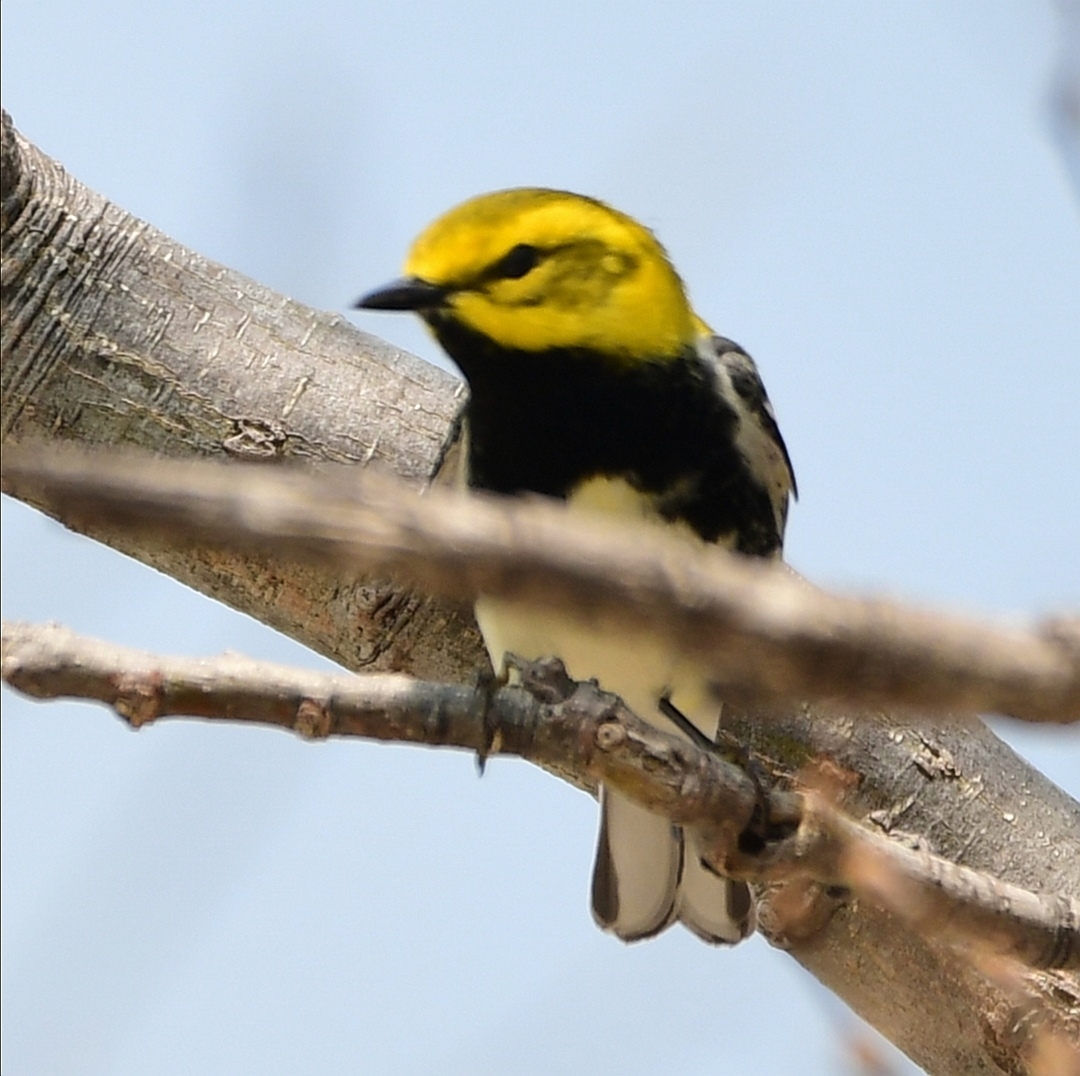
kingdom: Animalia
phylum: Chordata
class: Aves
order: Passeriformes
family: Parulidae
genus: Setophaga
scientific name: Setophaga virens
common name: Black-throated green warbler
